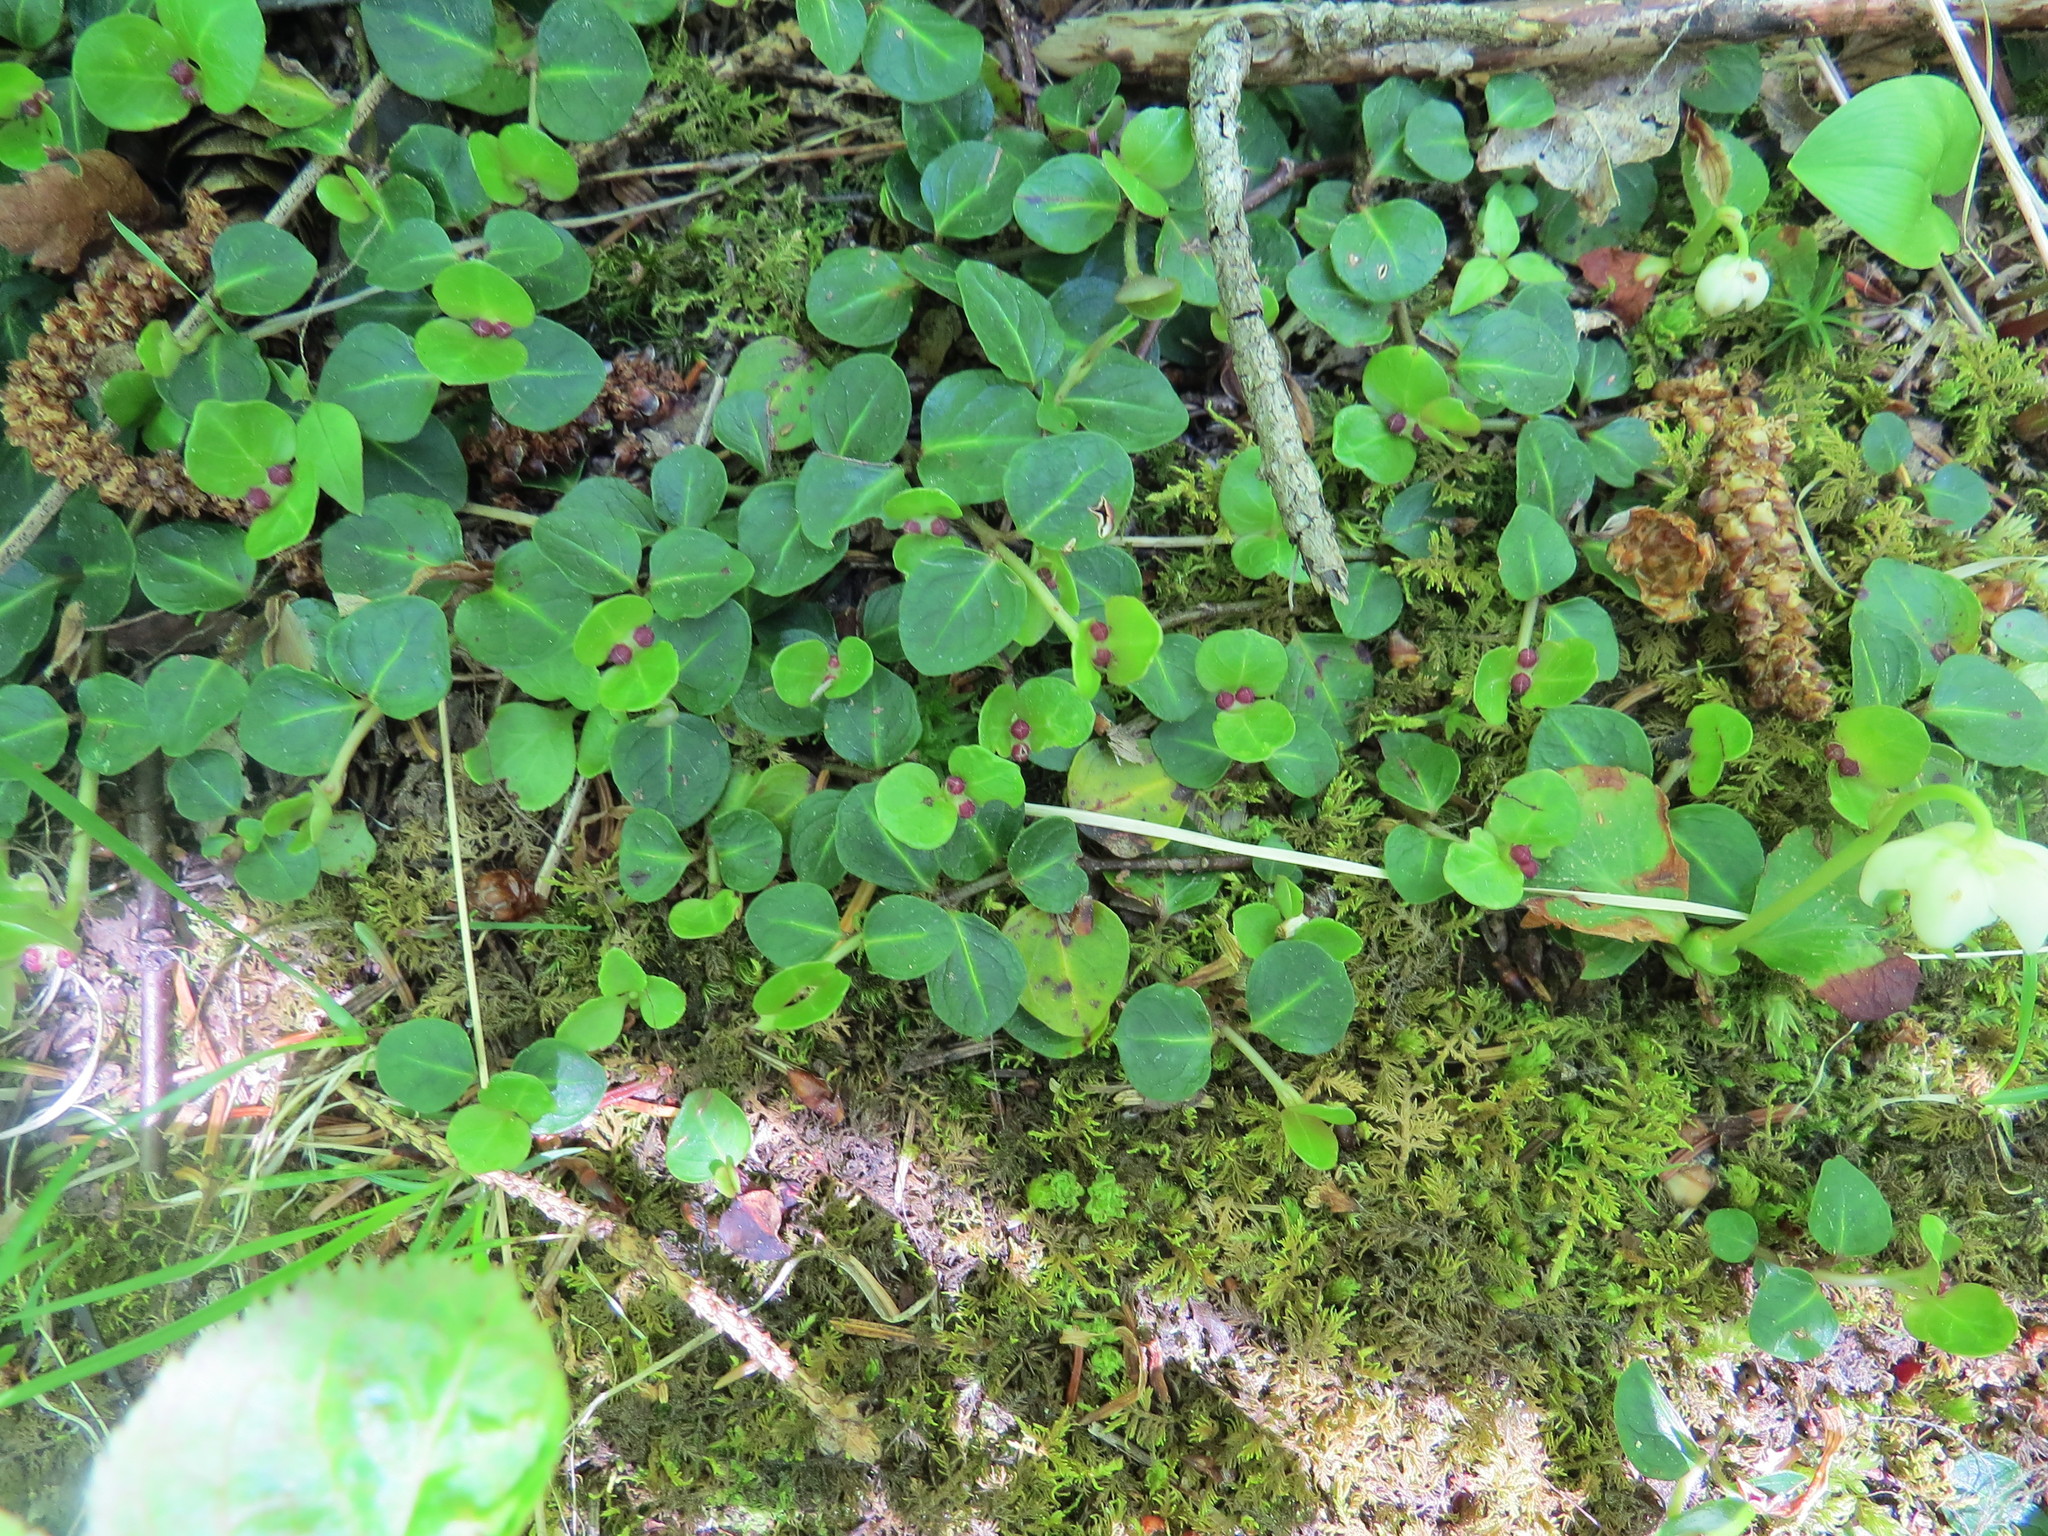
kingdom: Plantae
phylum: Tracheophyta
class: Magnoliopsida
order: Gentianales
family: Rubiaceae
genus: Mitchella
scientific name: Mitchella repens
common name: Partridge-berry
